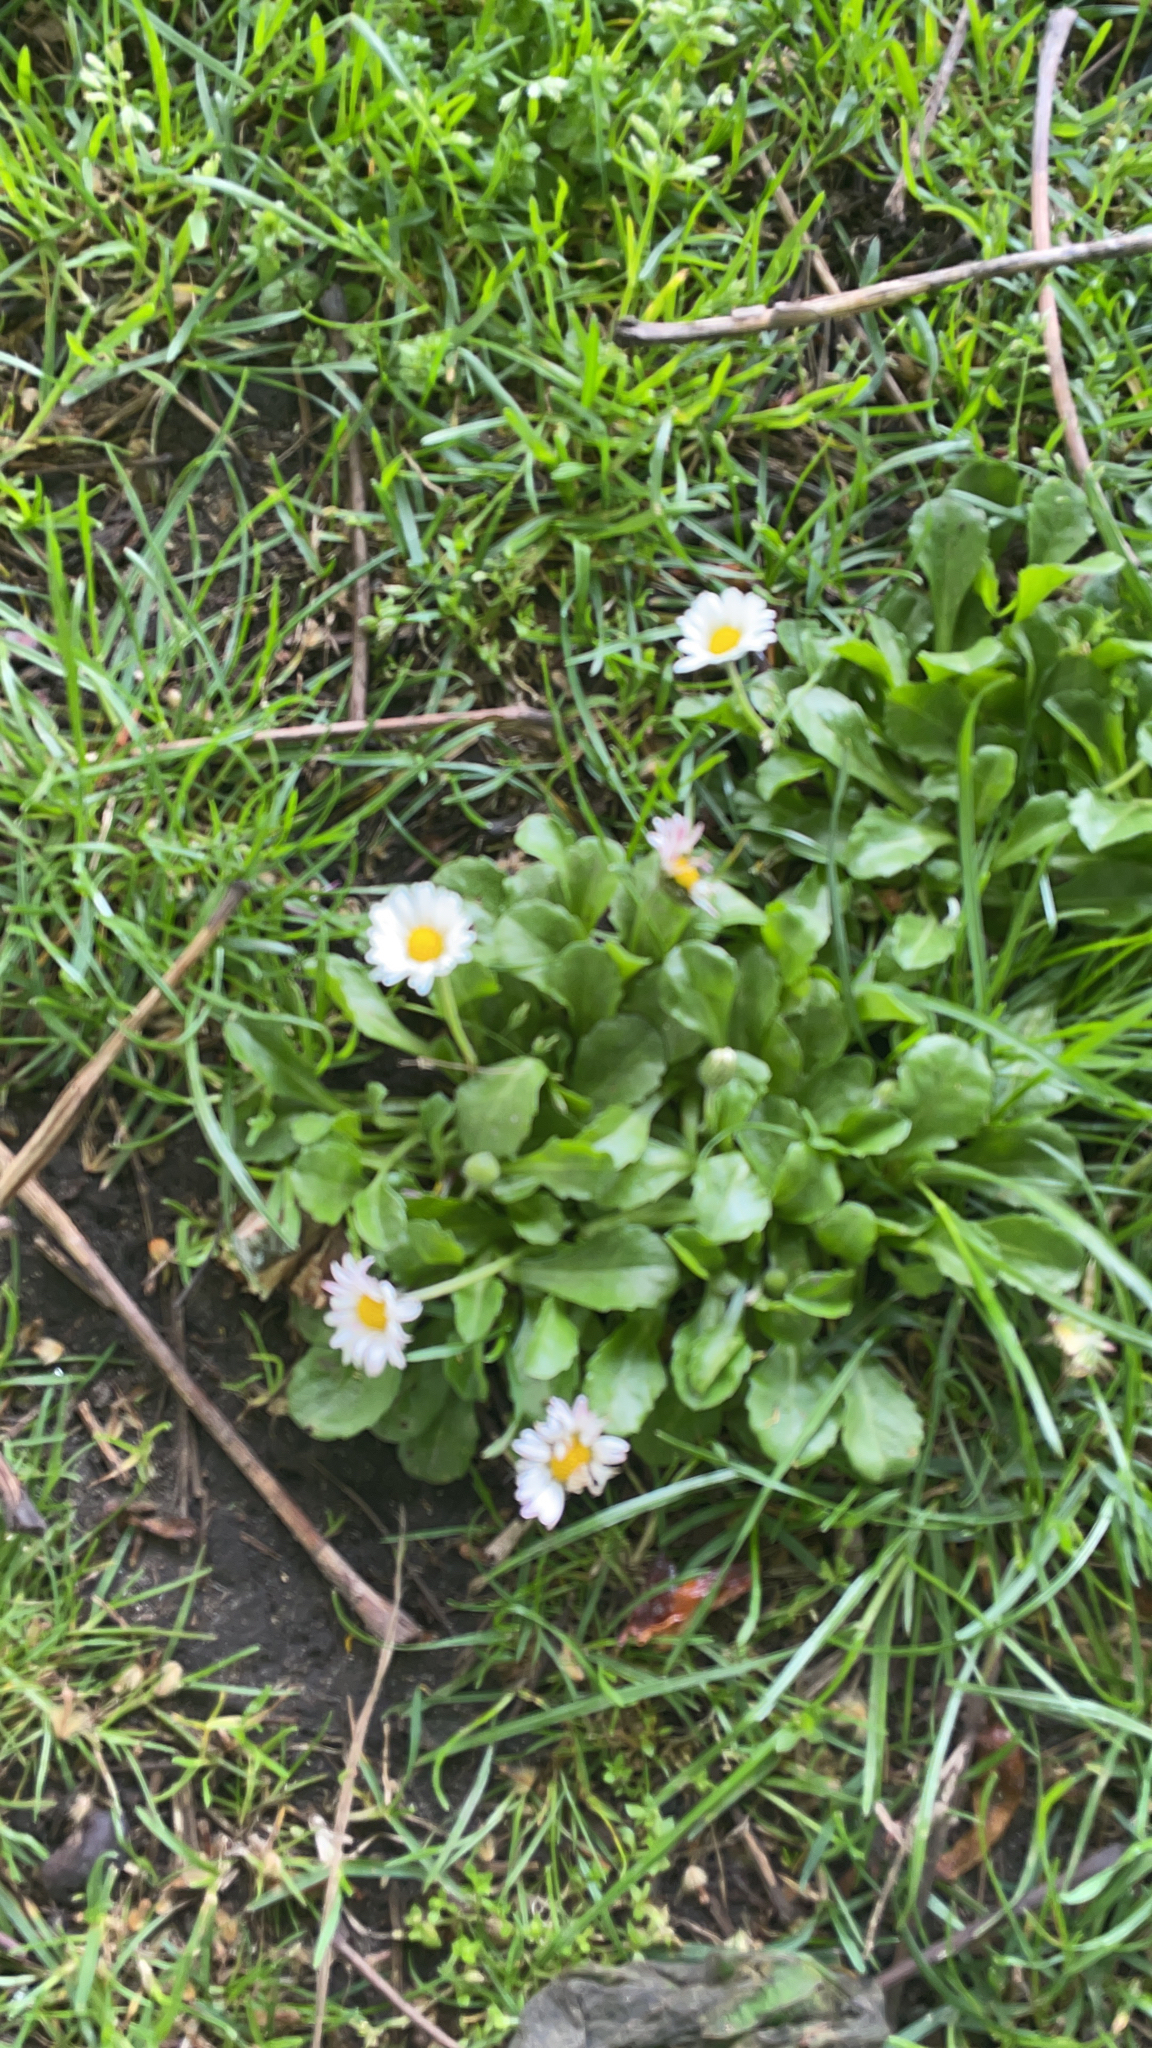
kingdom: Plantae
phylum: Tracheophyta
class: Magnoliopsida
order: Asterales
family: Asteraceae
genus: Bellis
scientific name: Bellis perennis
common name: Lawndaisy
